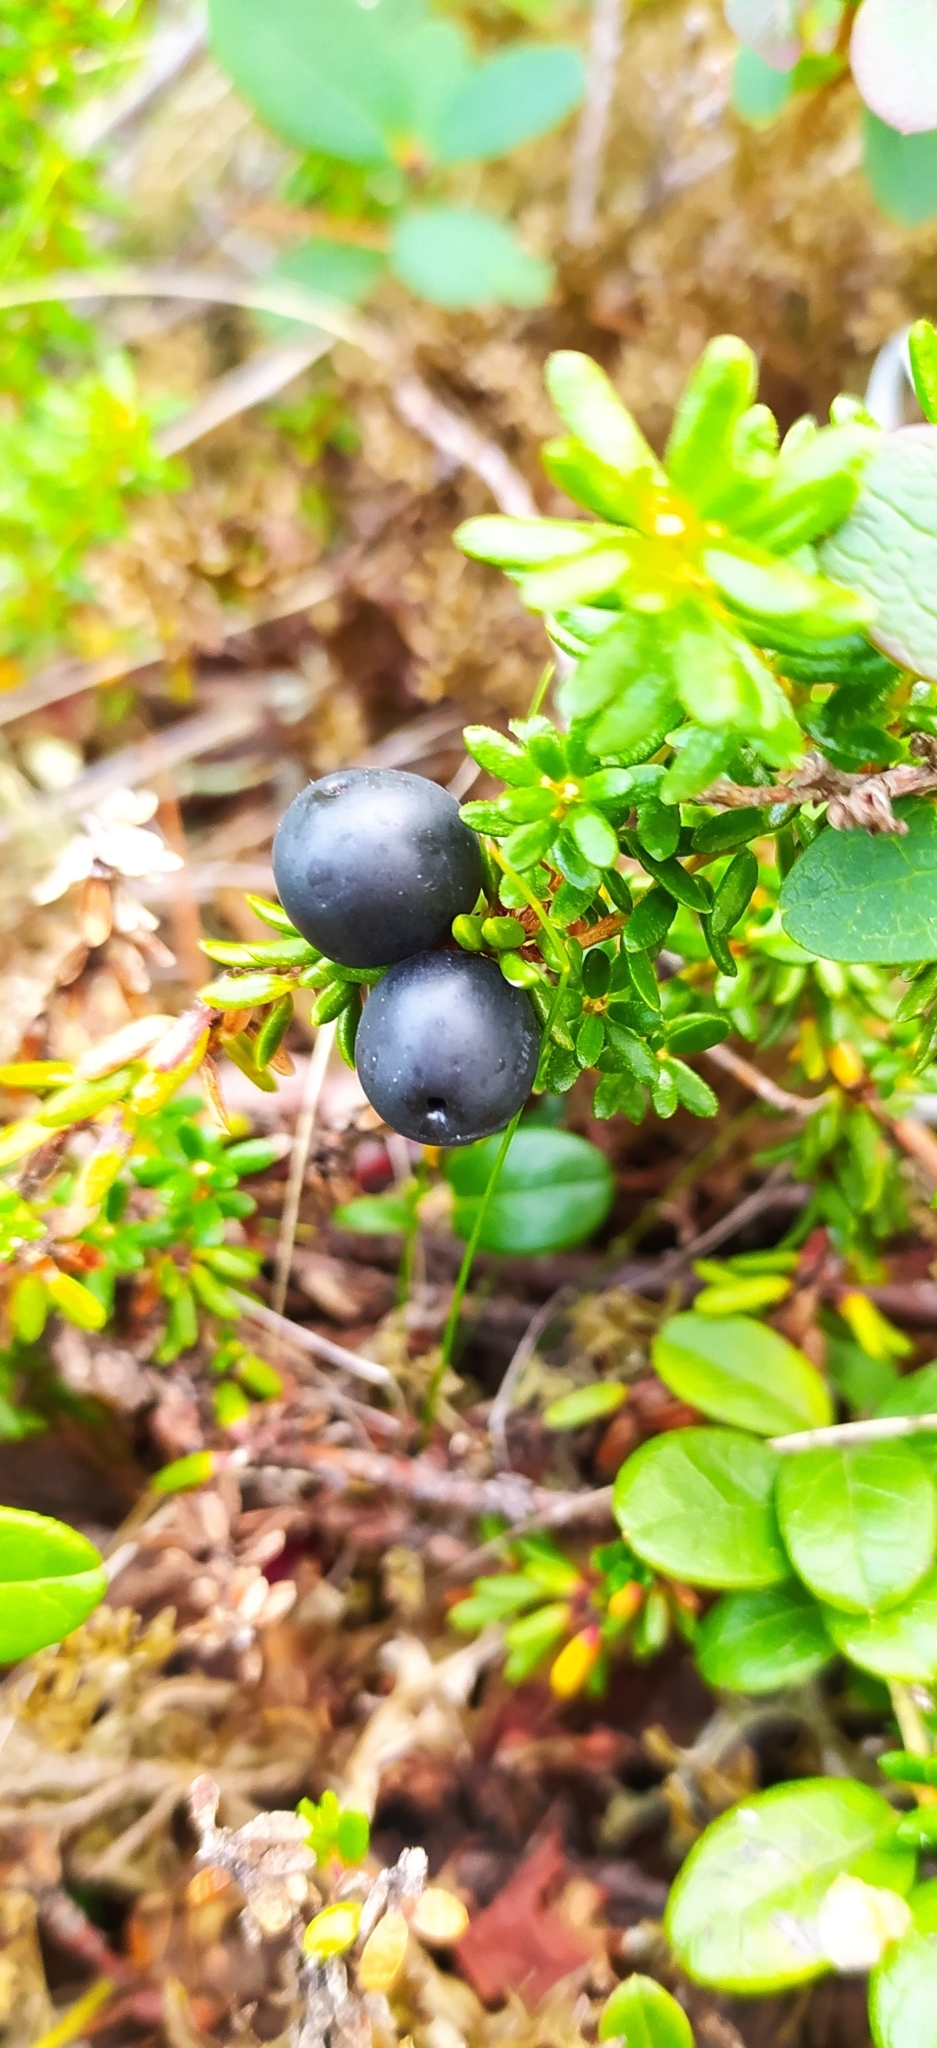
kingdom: Plantae
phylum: Tracheophyta
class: Magnoliopsida
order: Ericales
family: Ericaceae
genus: Empetrum
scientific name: Empetrum nigrum
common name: Black crowberry
